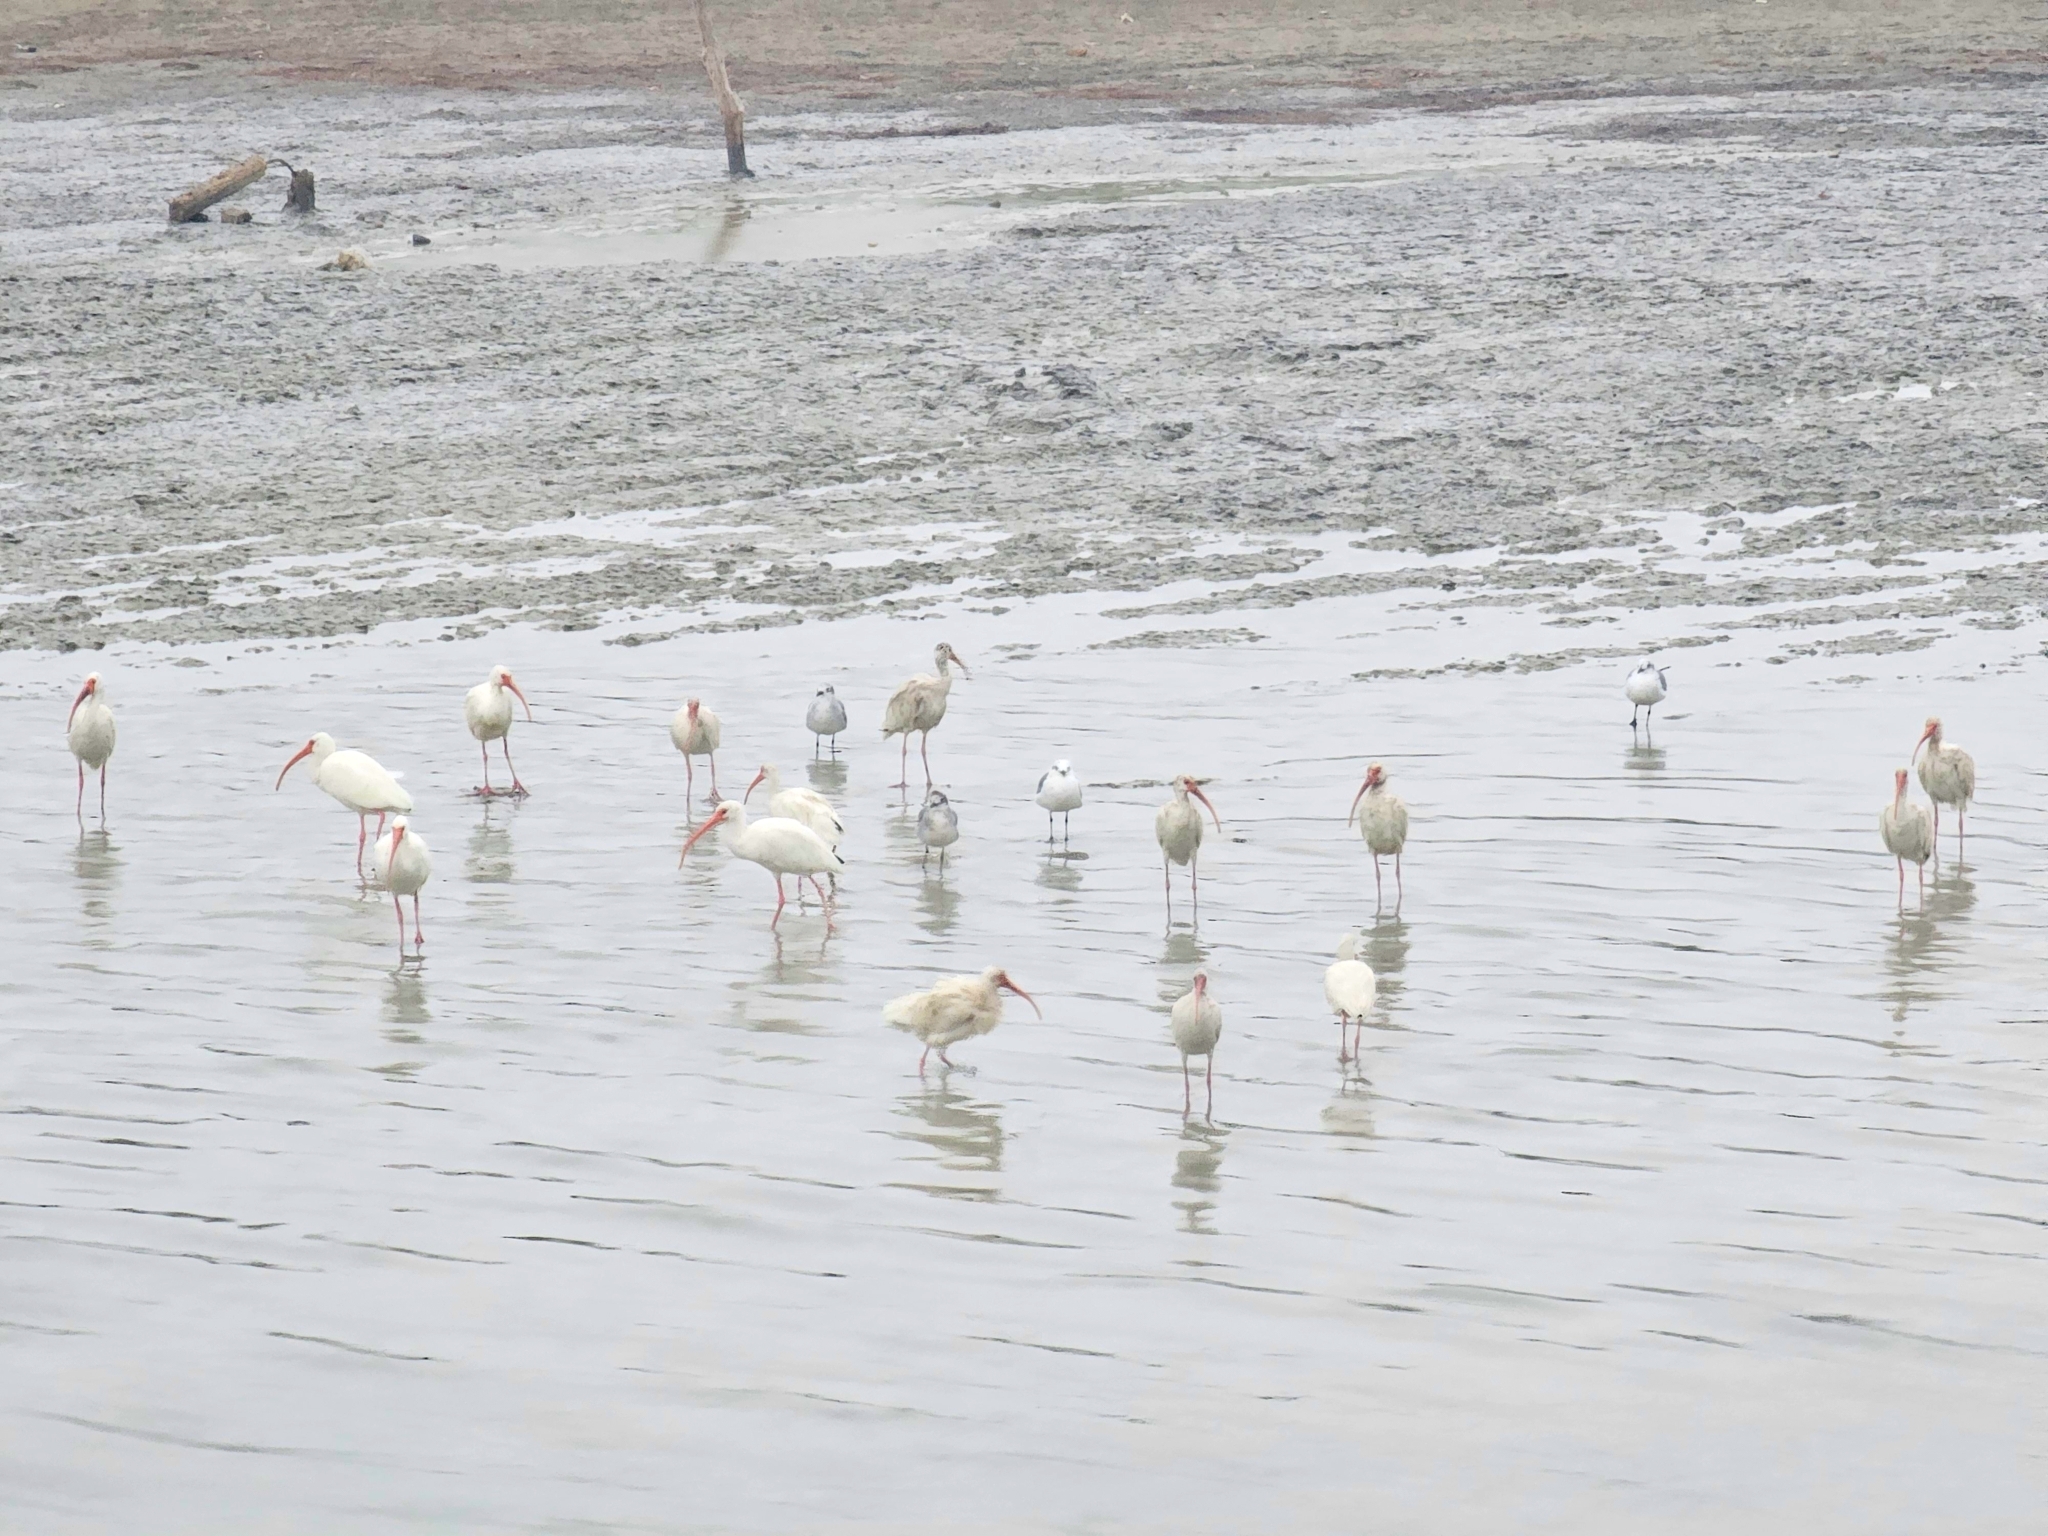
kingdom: Animalia
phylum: Chordata
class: Aves
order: Pelecaniformes
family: Threskiornithidae
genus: Eudocimus
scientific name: Eudocimus albus
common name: White ibis
